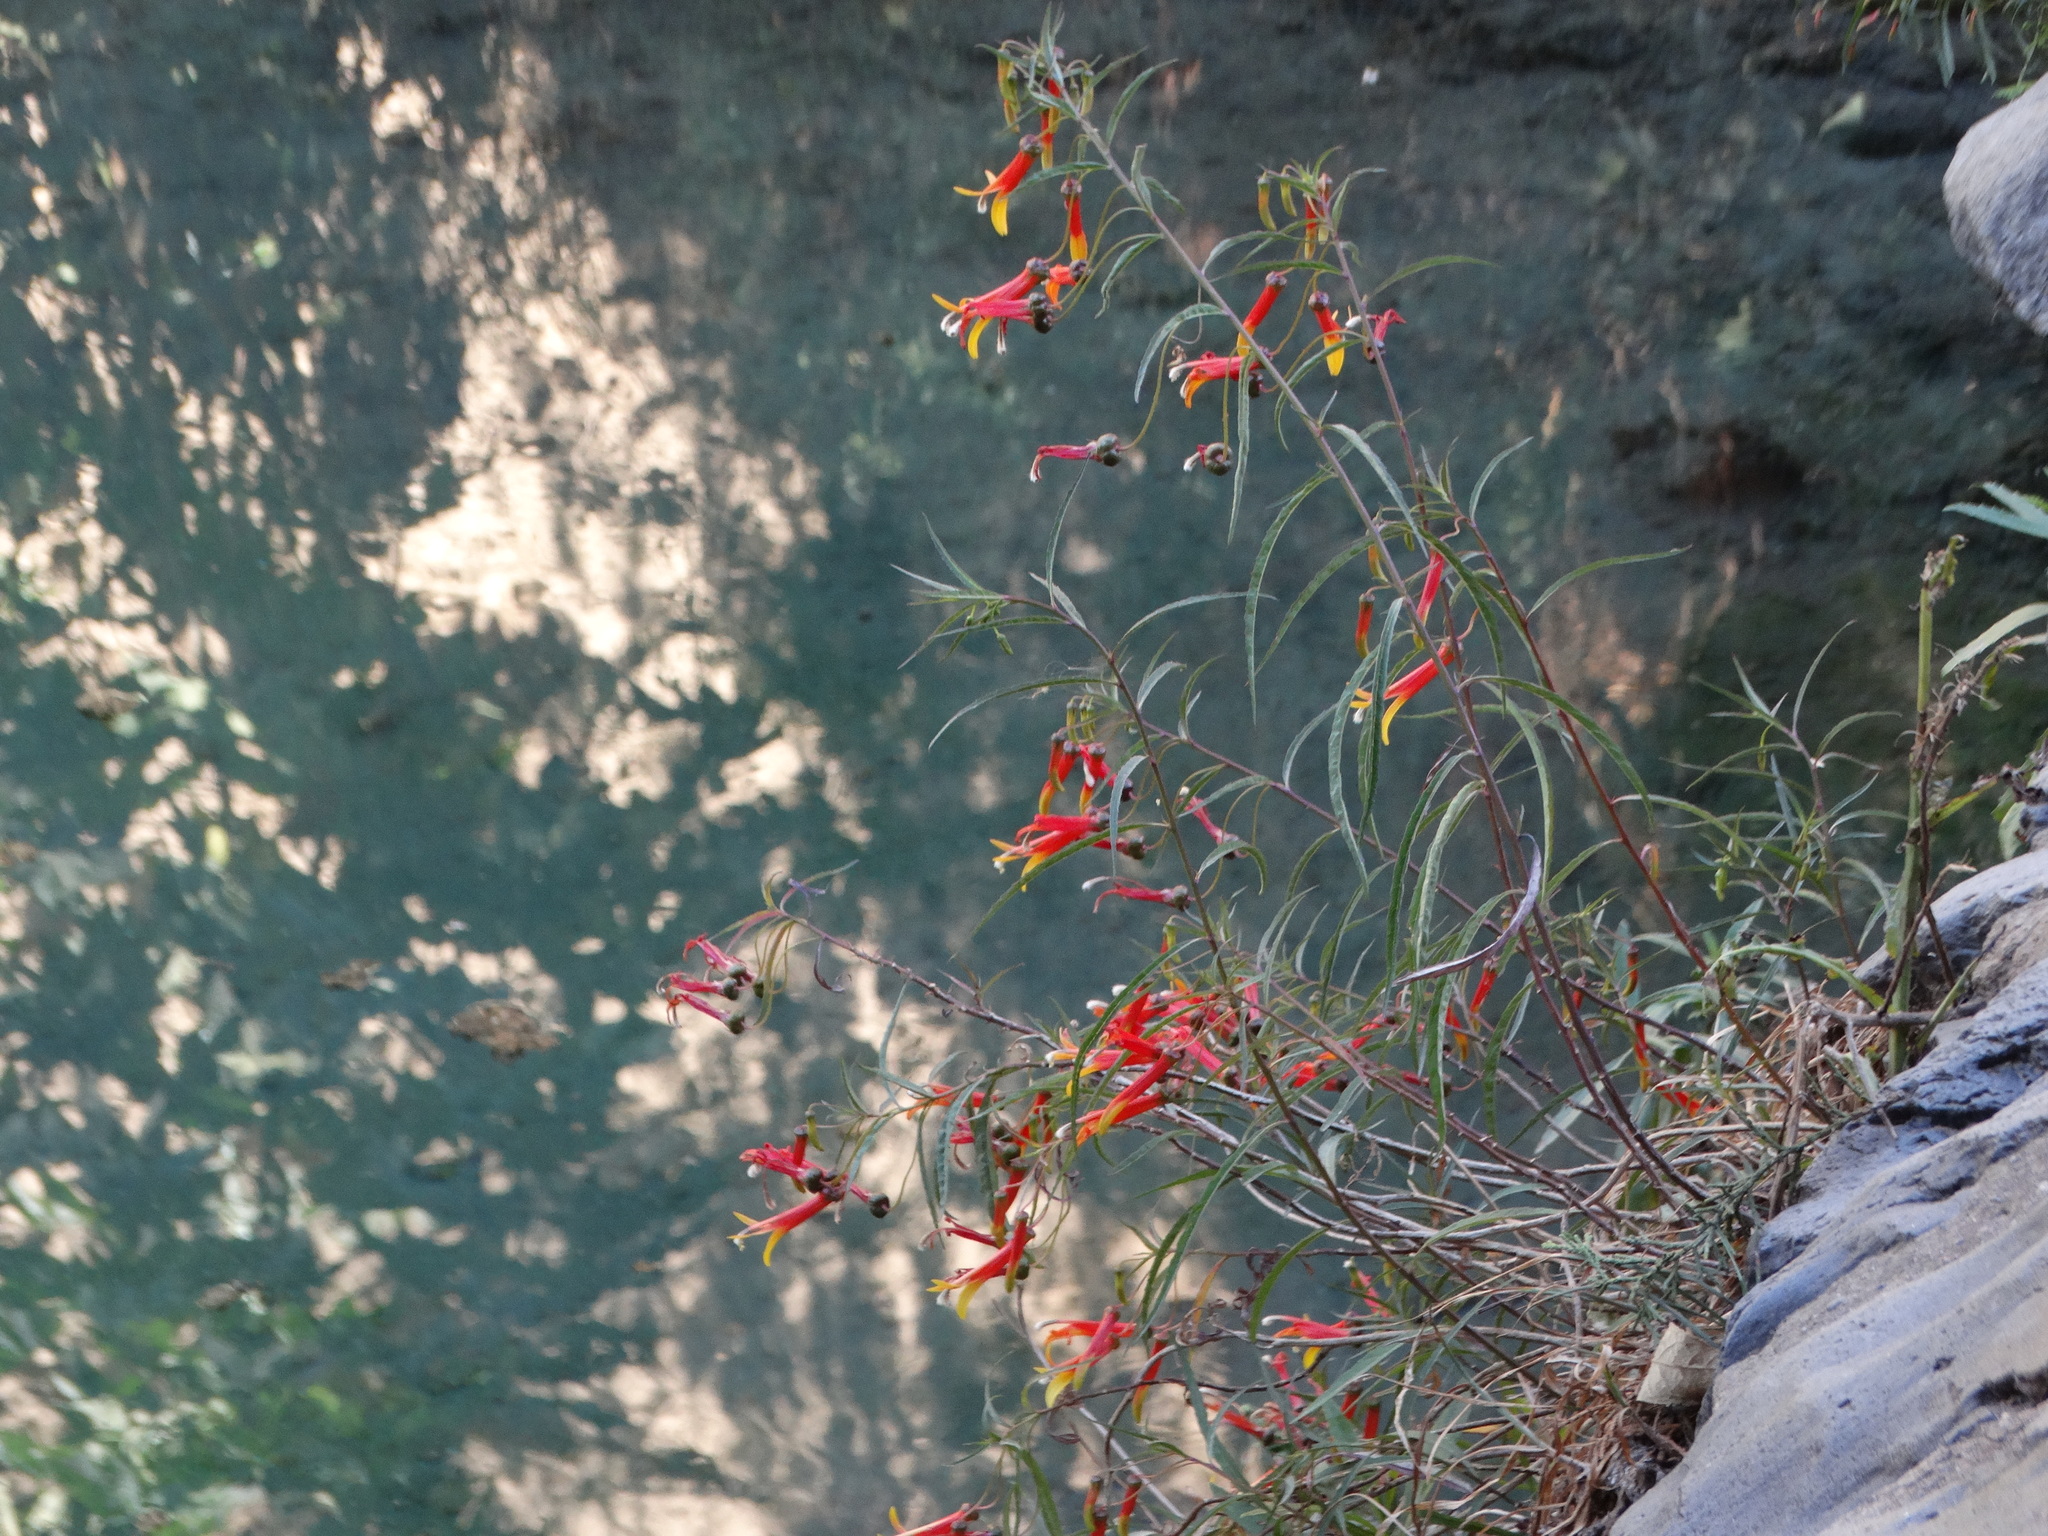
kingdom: Plantae
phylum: Tracheophyta
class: Magnoliopsida
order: Asterales
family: Campanulaceae
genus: Lobelia
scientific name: Lobelia laxiflora
